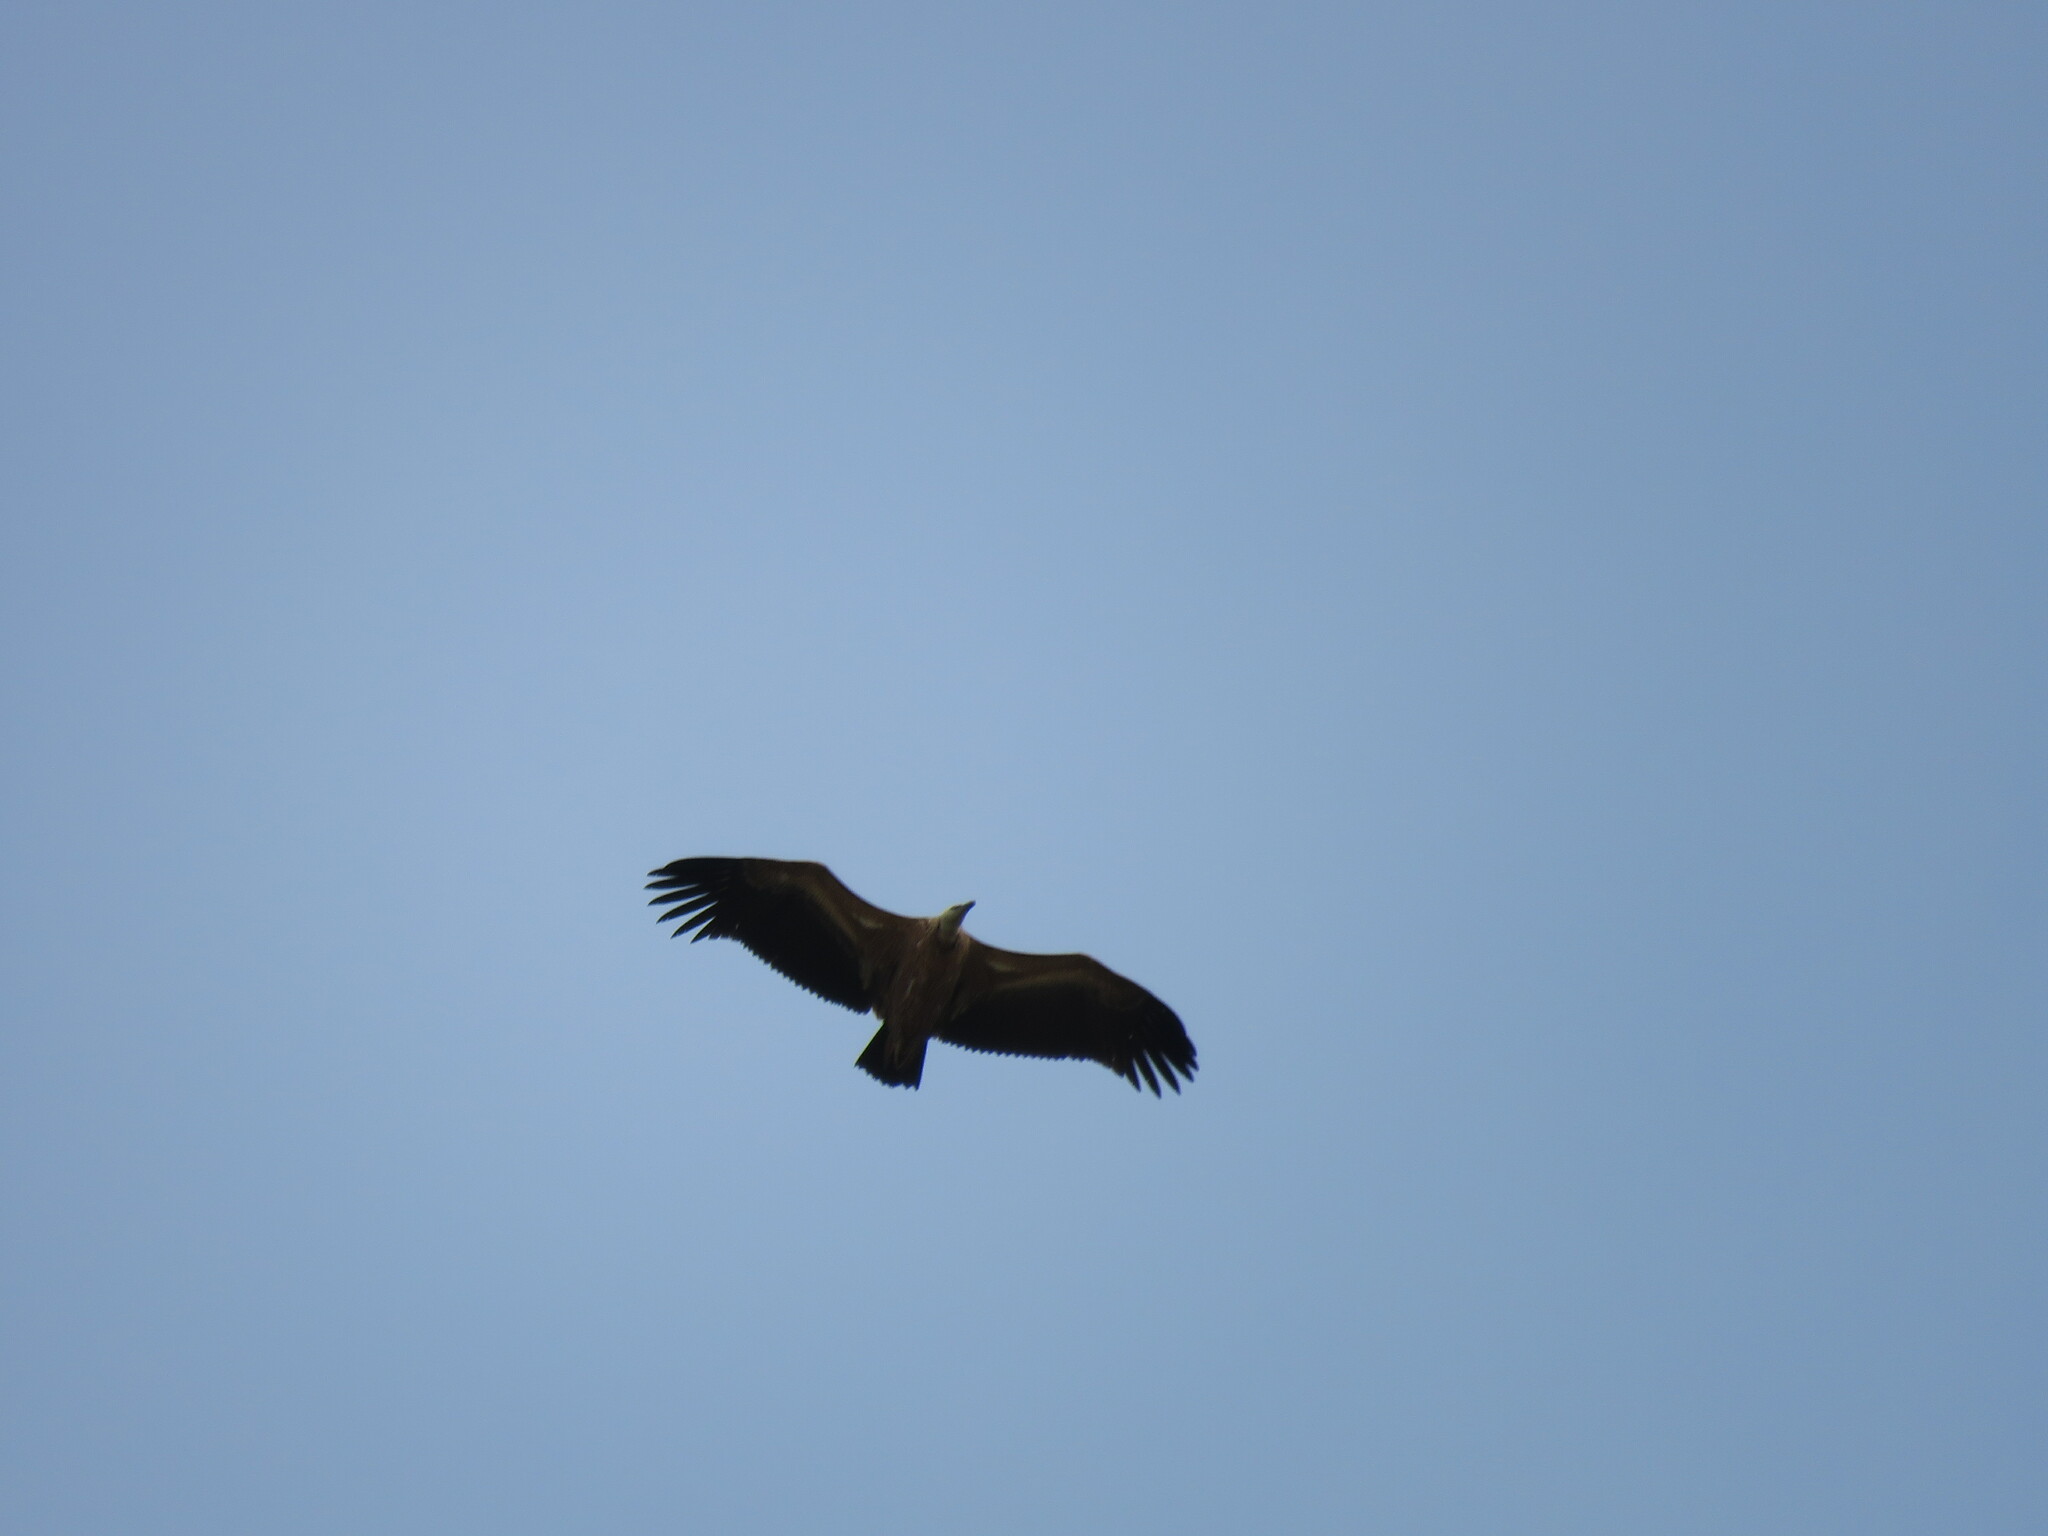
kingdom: Animalia
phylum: Chordata
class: Aves
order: Accipitriformes
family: Accipitridae
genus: Gyps
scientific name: Gyps fulvus
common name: Griffon vulture
